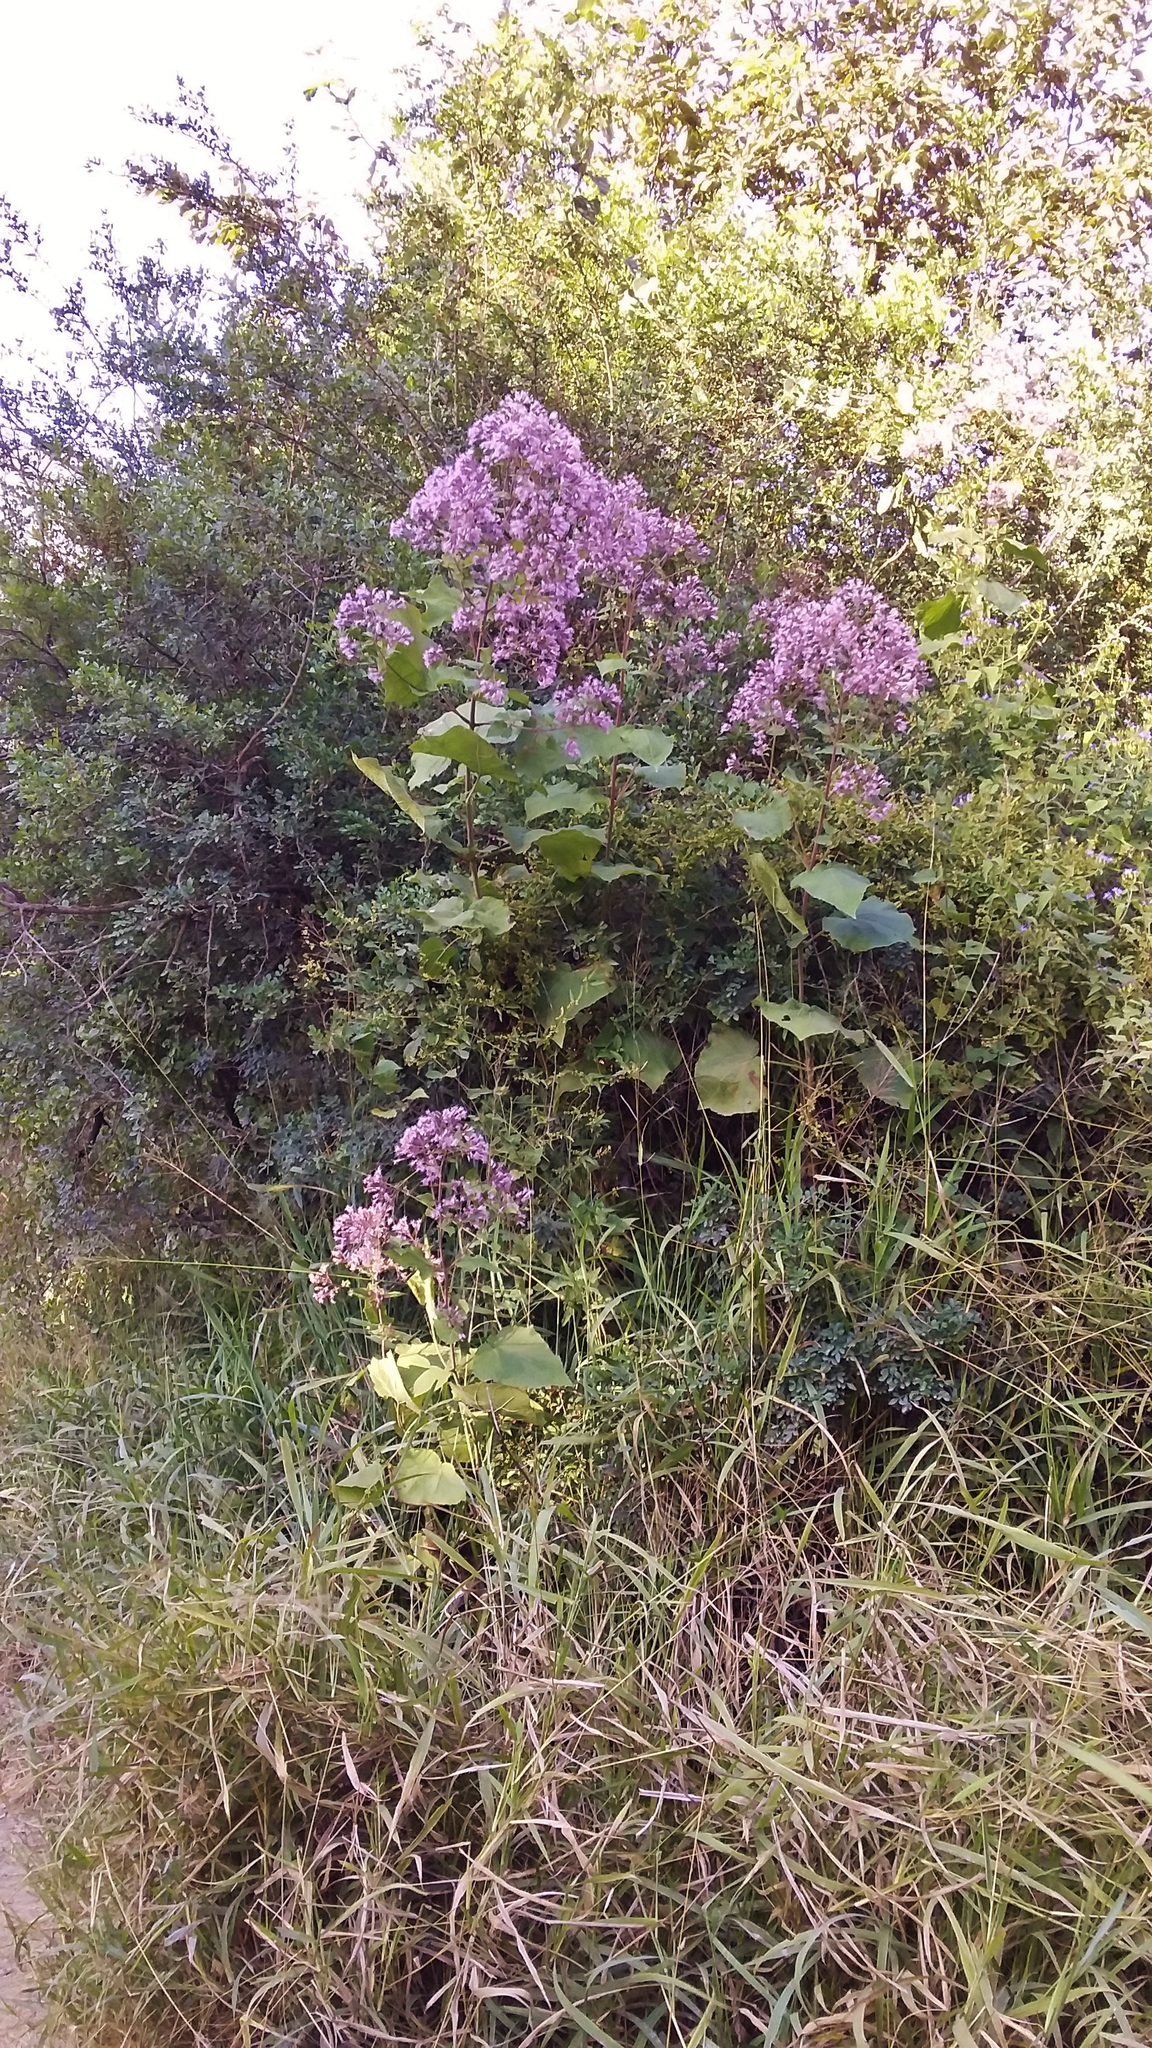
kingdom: Plantae
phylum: Tracheophyta
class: Magnoliopsida
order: Asterales
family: Asteraceae
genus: Peteravenia
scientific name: Peteravenia malvifolia
